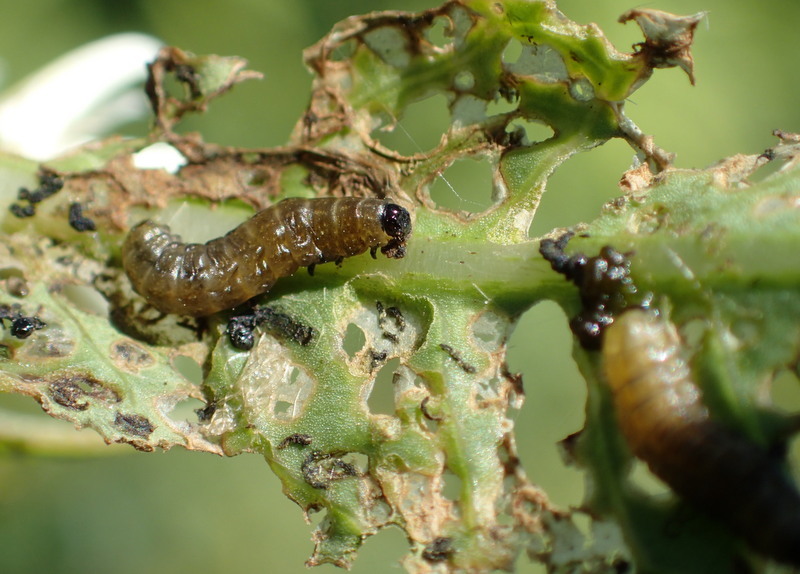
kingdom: Animalia
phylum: Arthropoda
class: Insecta
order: Coleoptera
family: Chrysomelidae
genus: Agasicles
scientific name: Agasicles hygrophila
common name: Alligatorweed flea beetle
